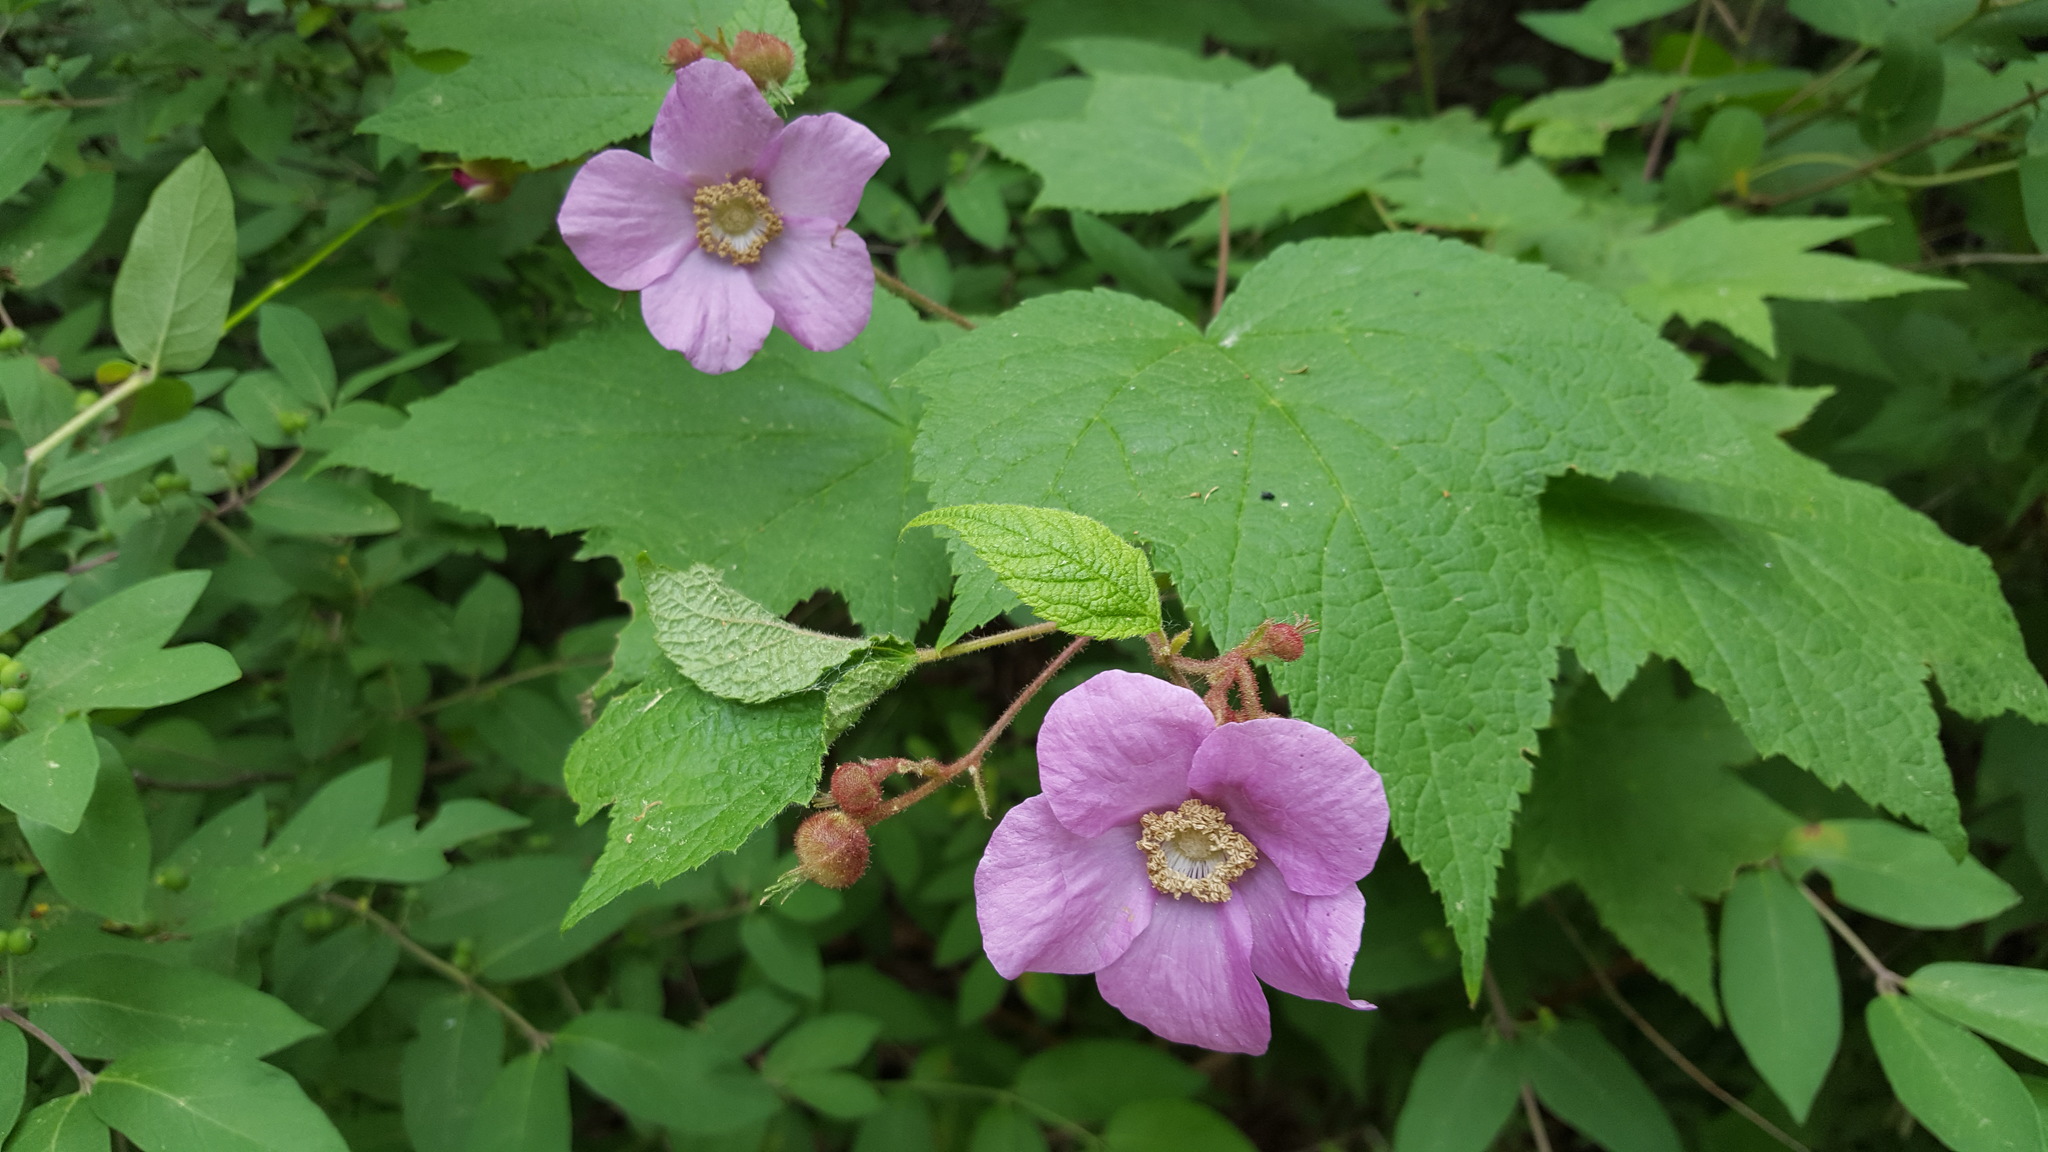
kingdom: Plantae
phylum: Tracheophyta
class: Magnoliopsida
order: Rosales
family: Rosaceae
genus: Rubus
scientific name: Rubus odoratus
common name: Purple-flowered raspberry
